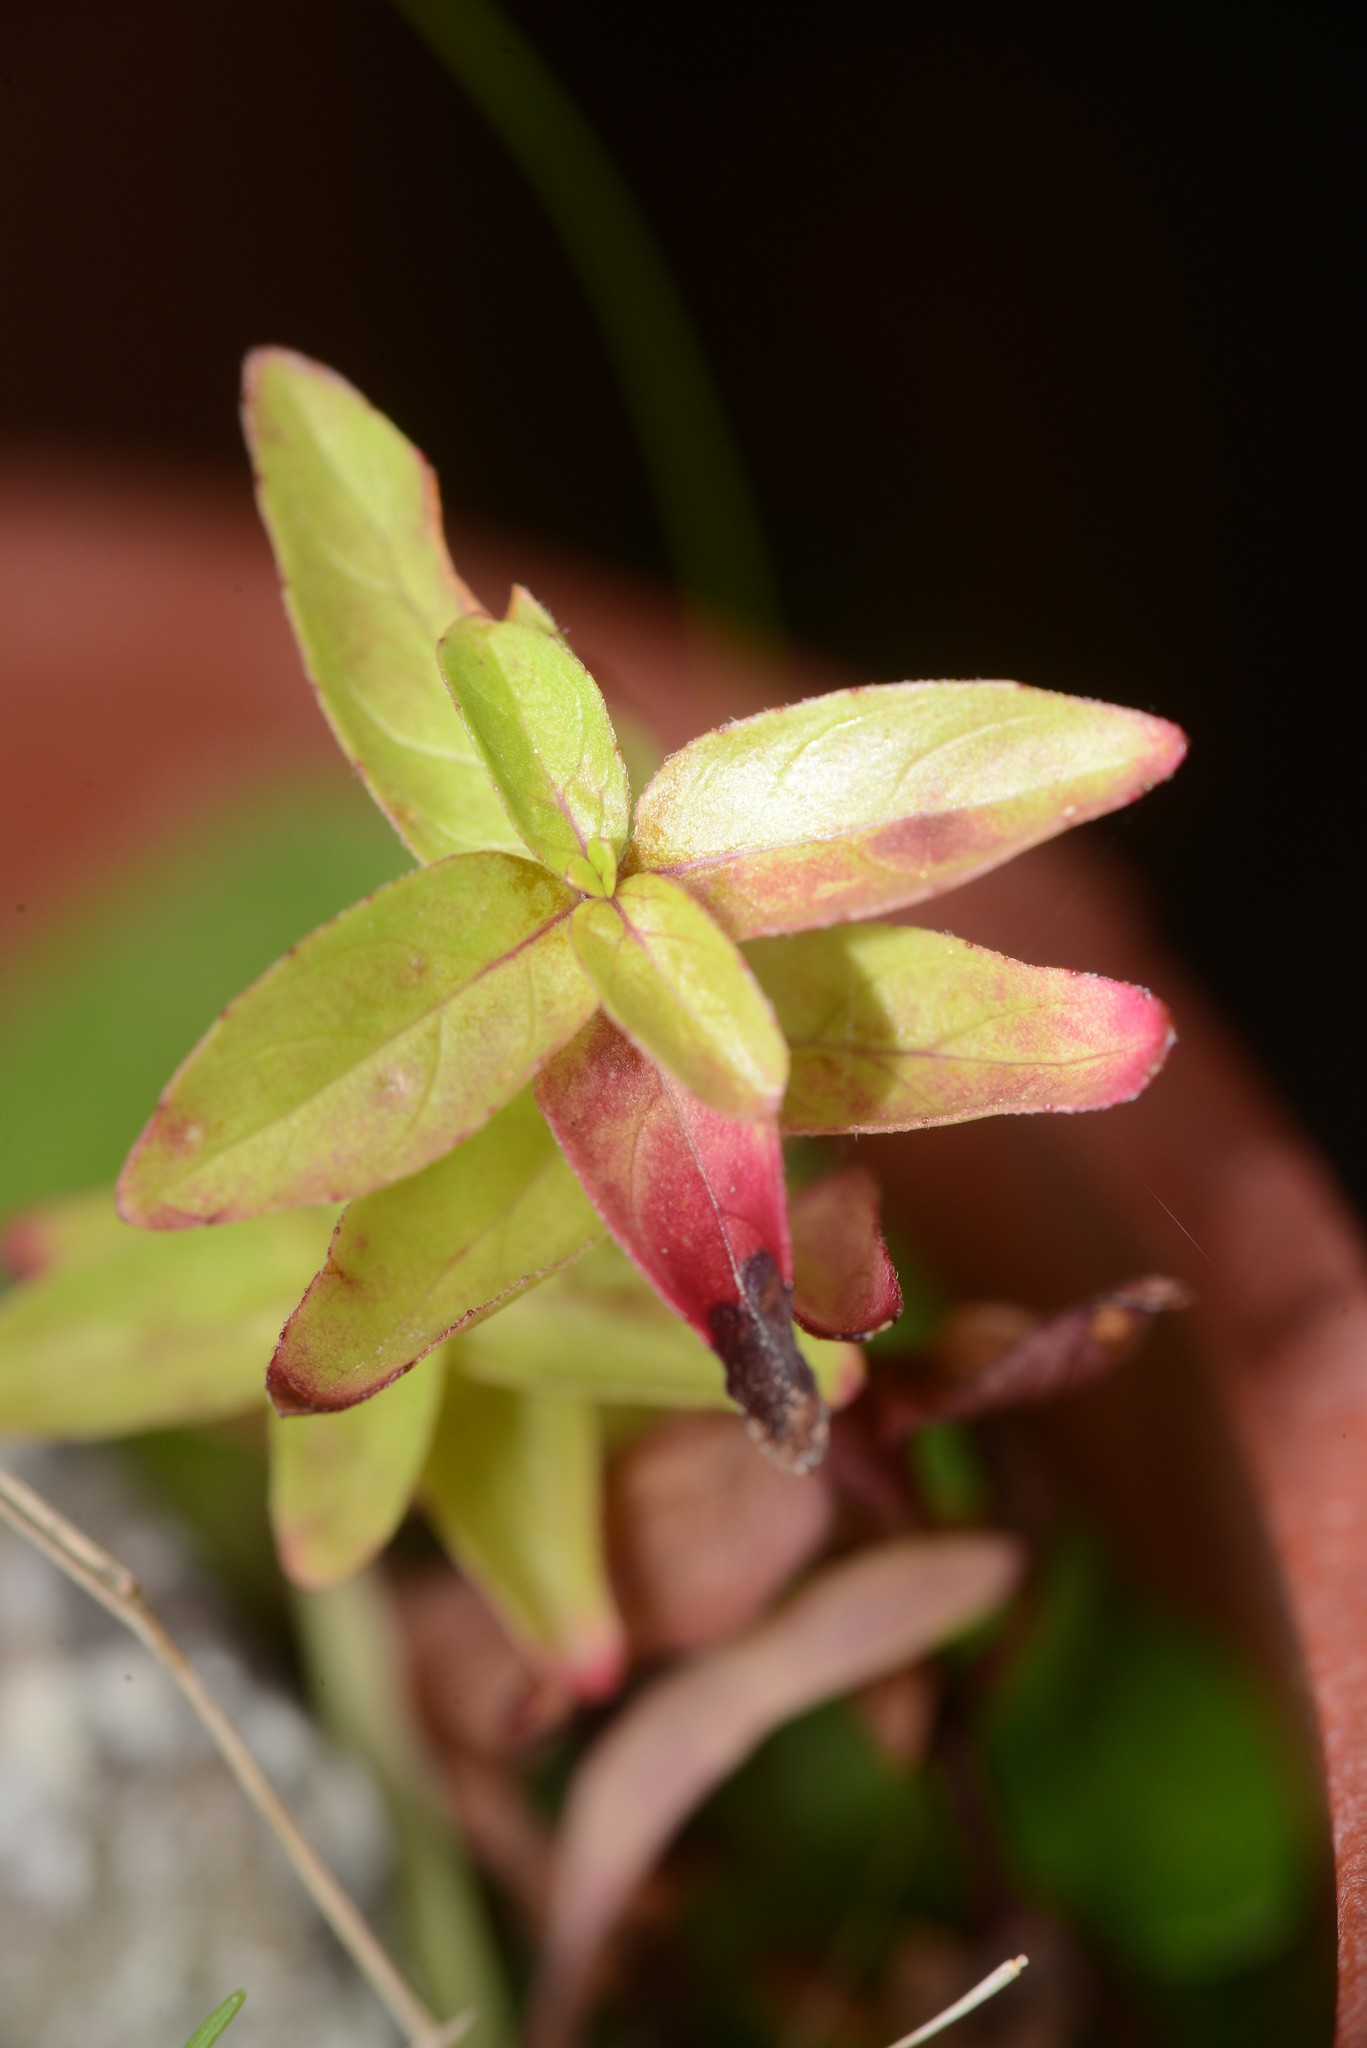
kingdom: Plantae
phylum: Tracheophyta
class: Magnoliopsida
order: Myrtales
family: Onagraceae
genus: Epilobium
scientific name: Epilobium ciliatum
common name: American willowherb
